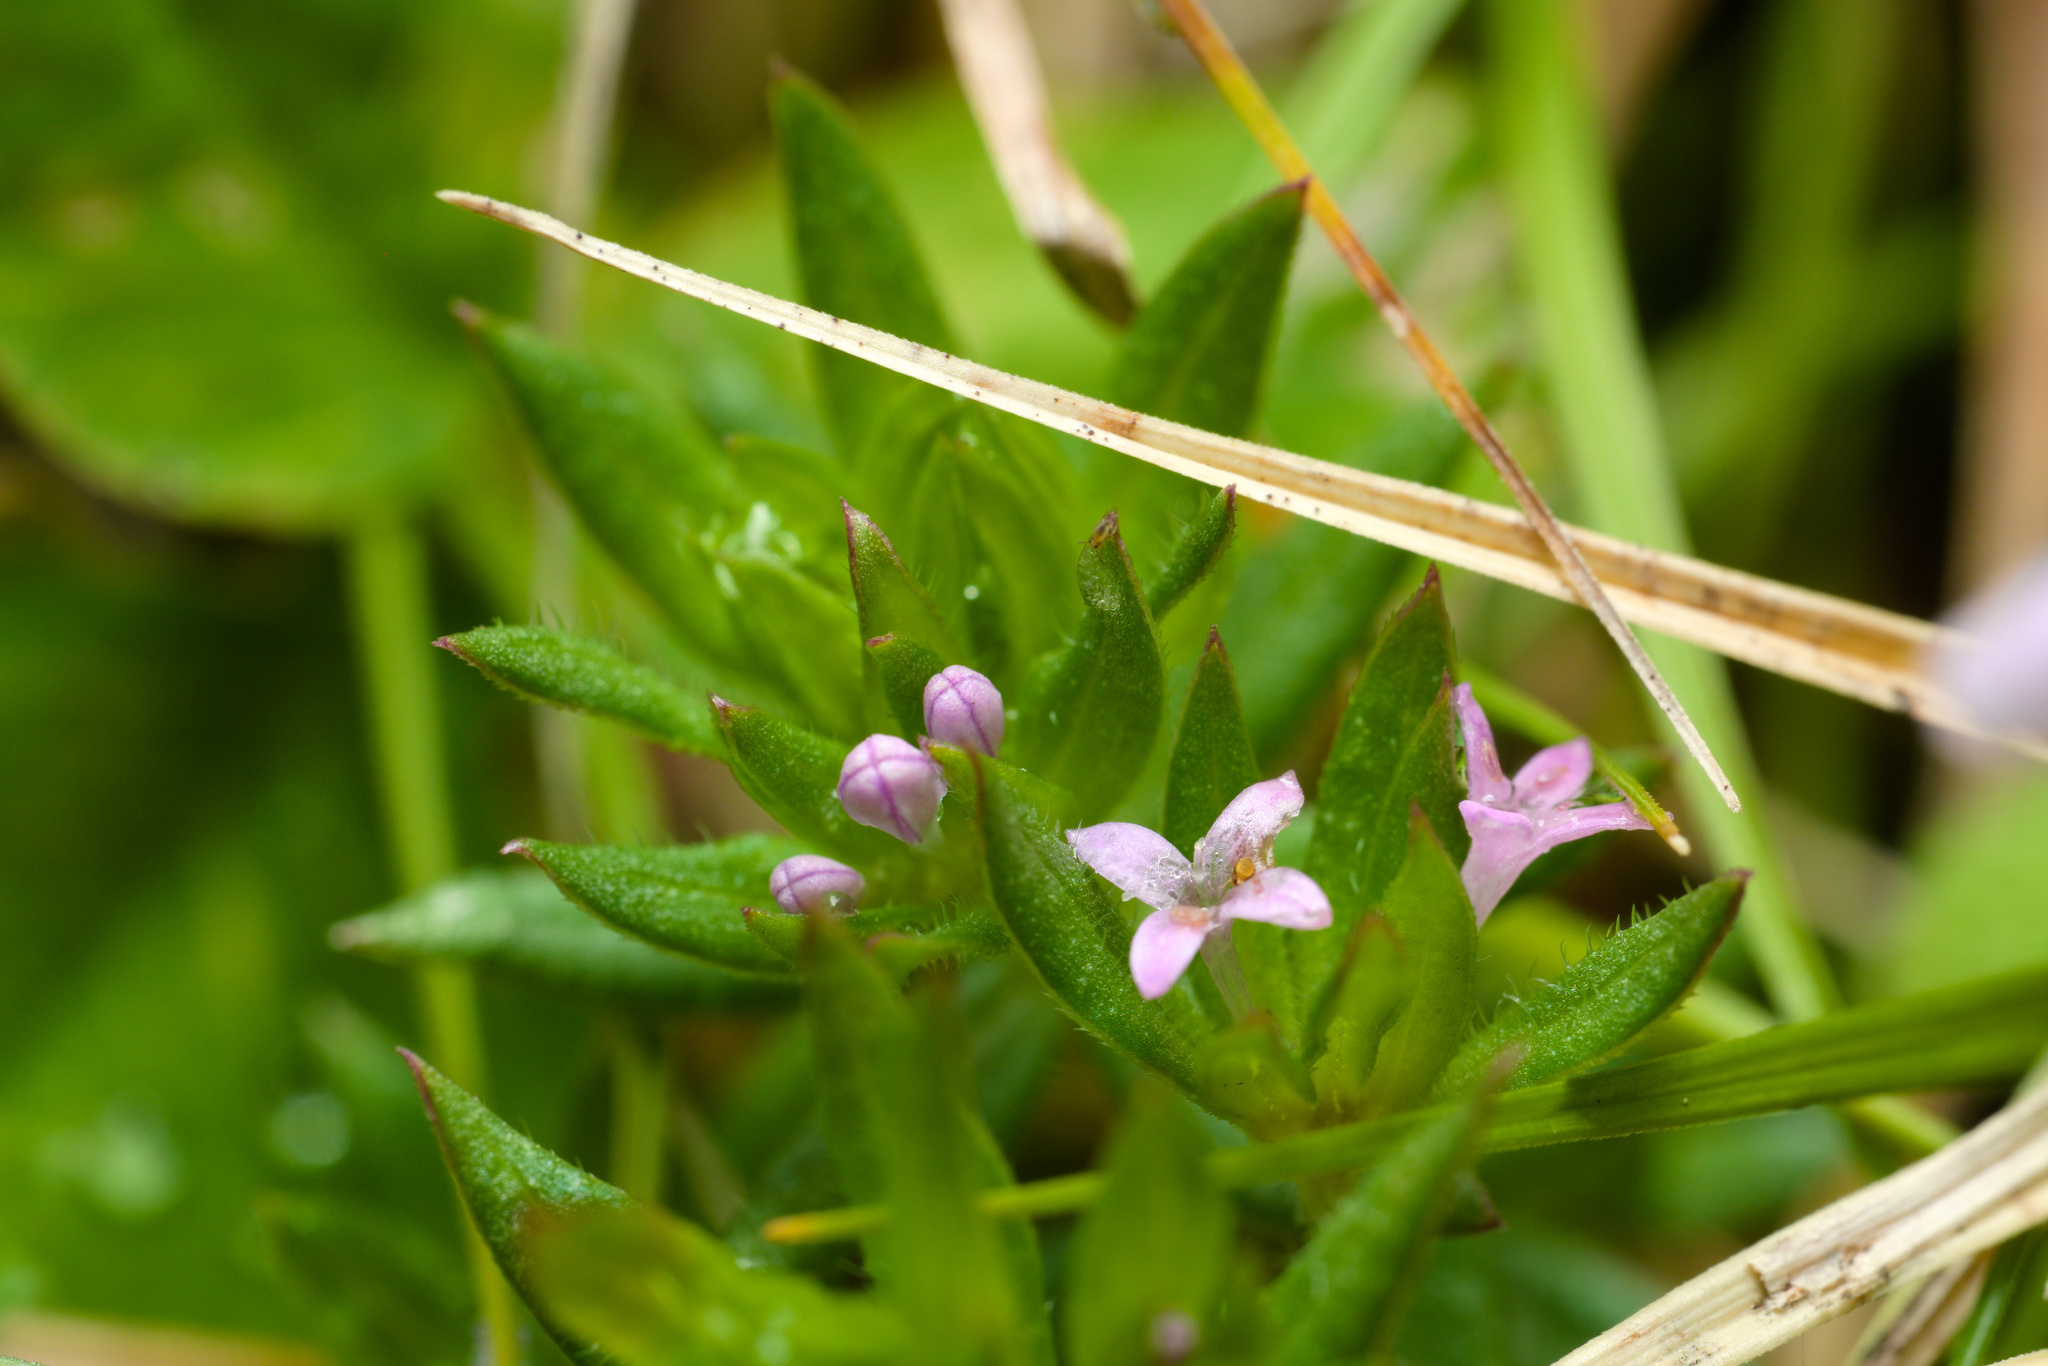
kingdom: Plantae
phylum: Tracheophyta
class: Magnoliopsida
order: Gentianales
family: Rubiaceae
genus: Sherardia
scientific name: Sherardia arvensis
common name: Field madder
